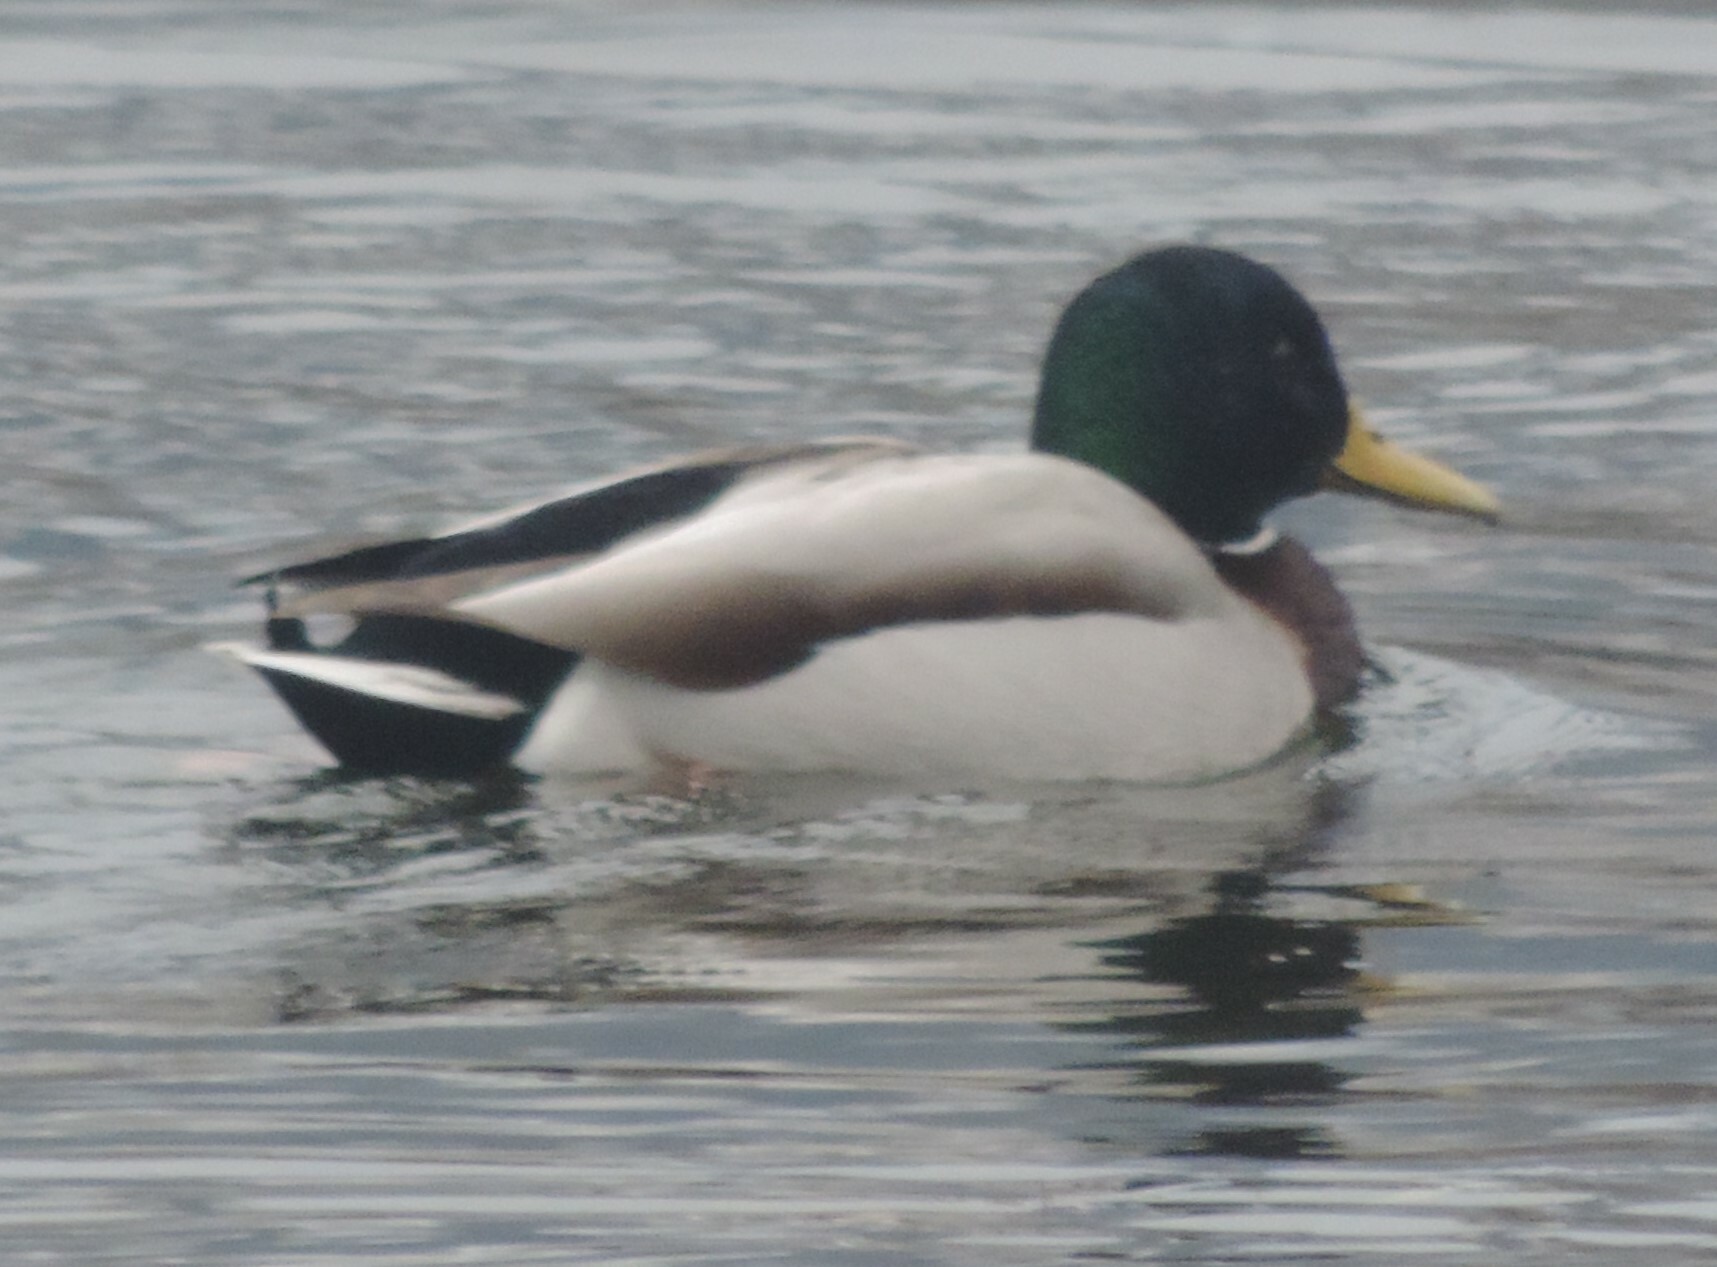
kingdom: Animalia
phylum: Chordata
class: Aves
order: Anseriformes
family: Anatidae
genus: Anas
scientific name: Anas platyrhynchos
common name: Mallard
